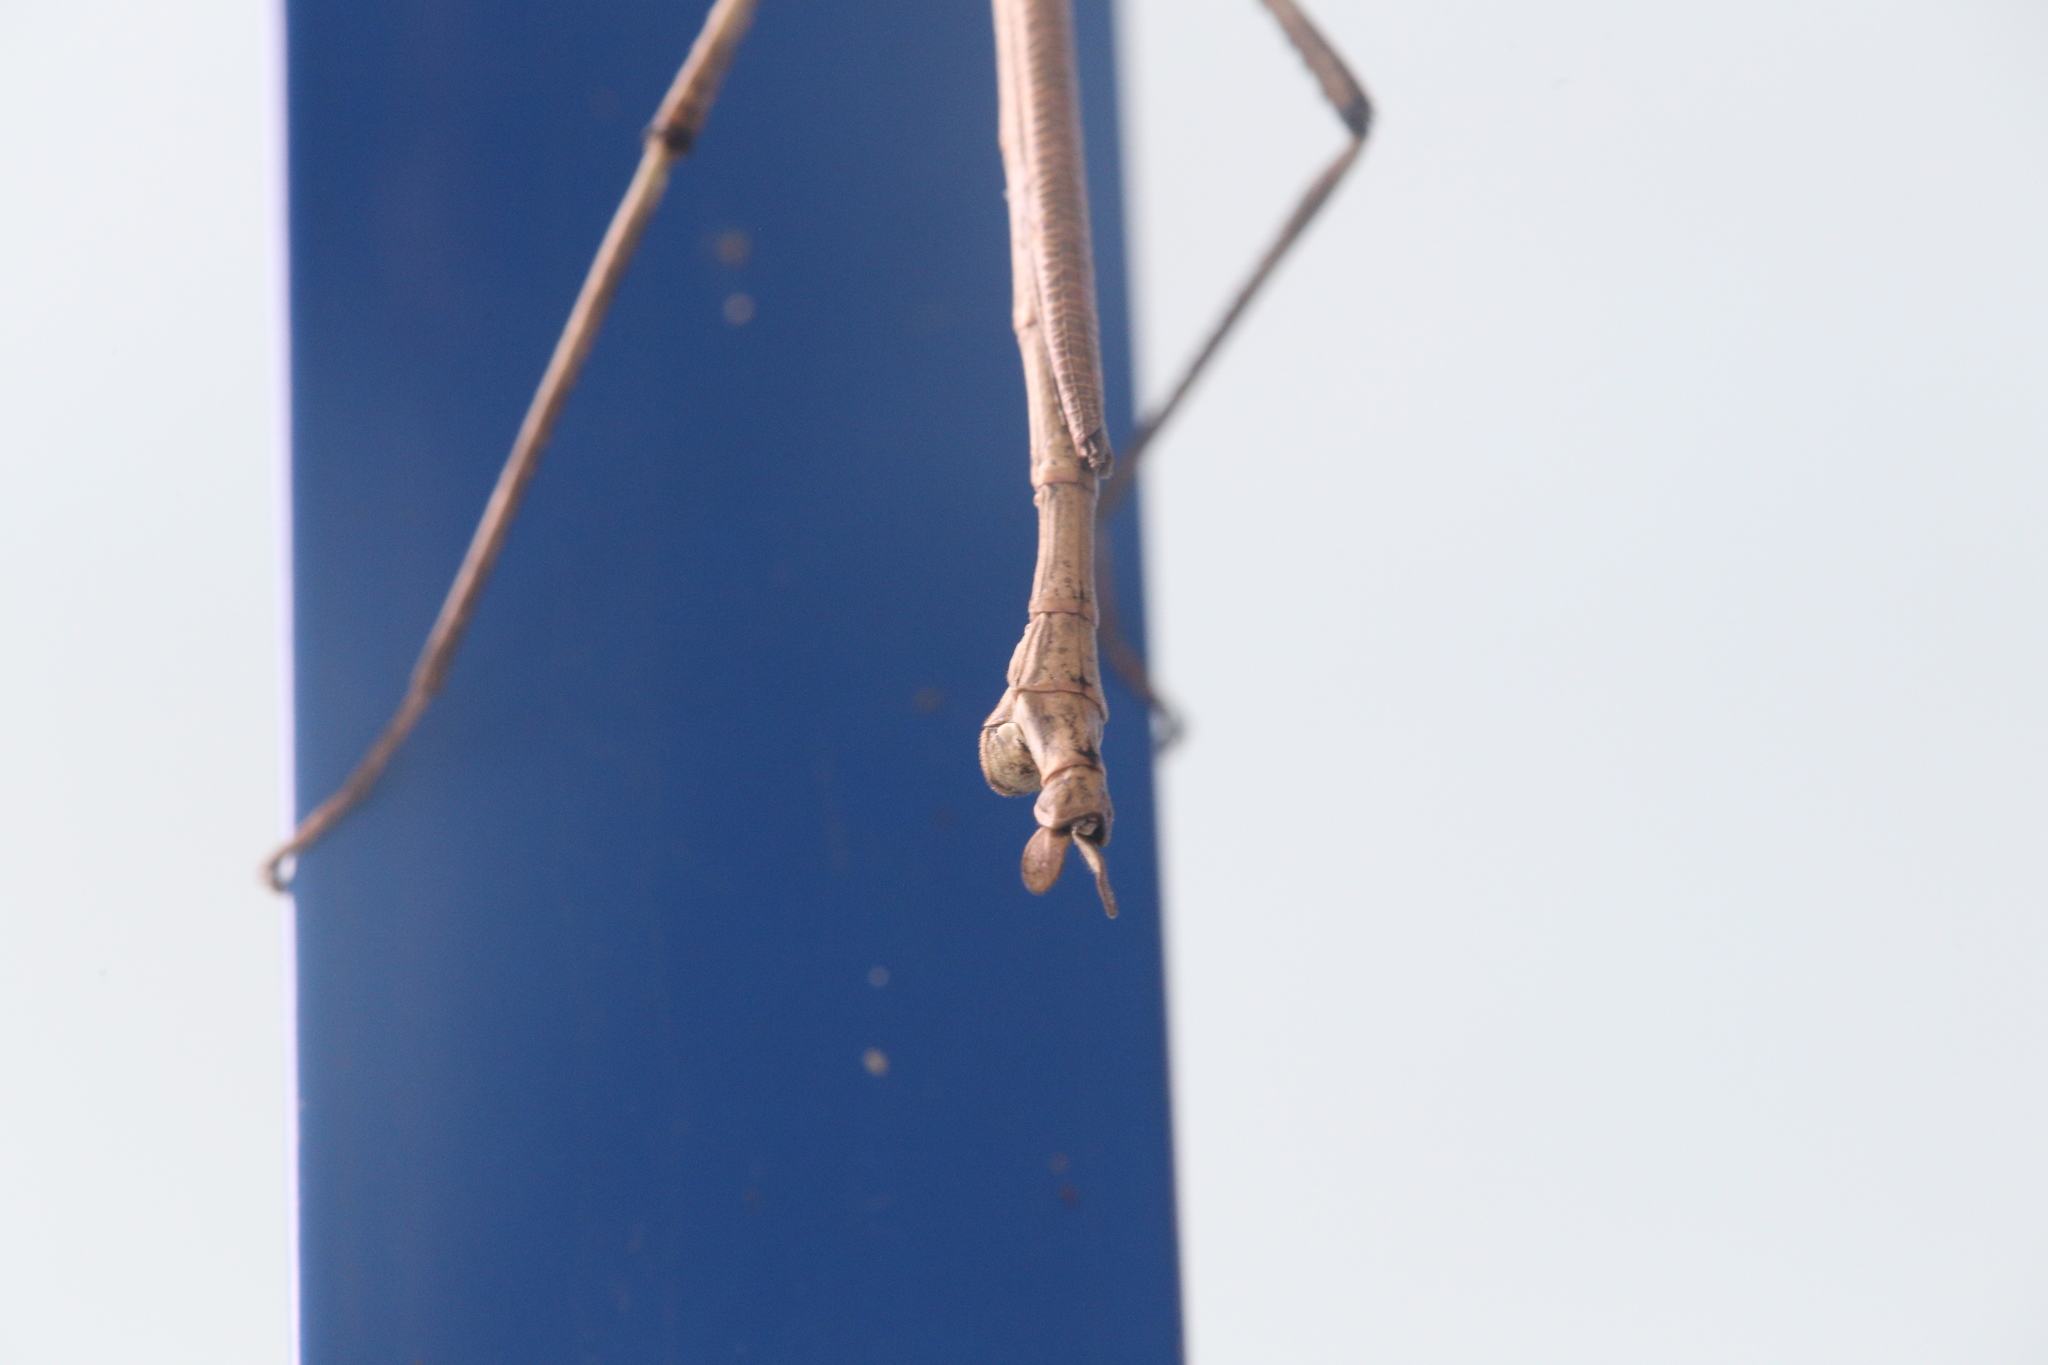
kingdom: Animalia
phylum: Arthropoda
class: Insecta
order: Phasmida
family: Phasmatidae
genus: Anchiale
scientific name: Anchiale briareus
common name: Strong stick insect
